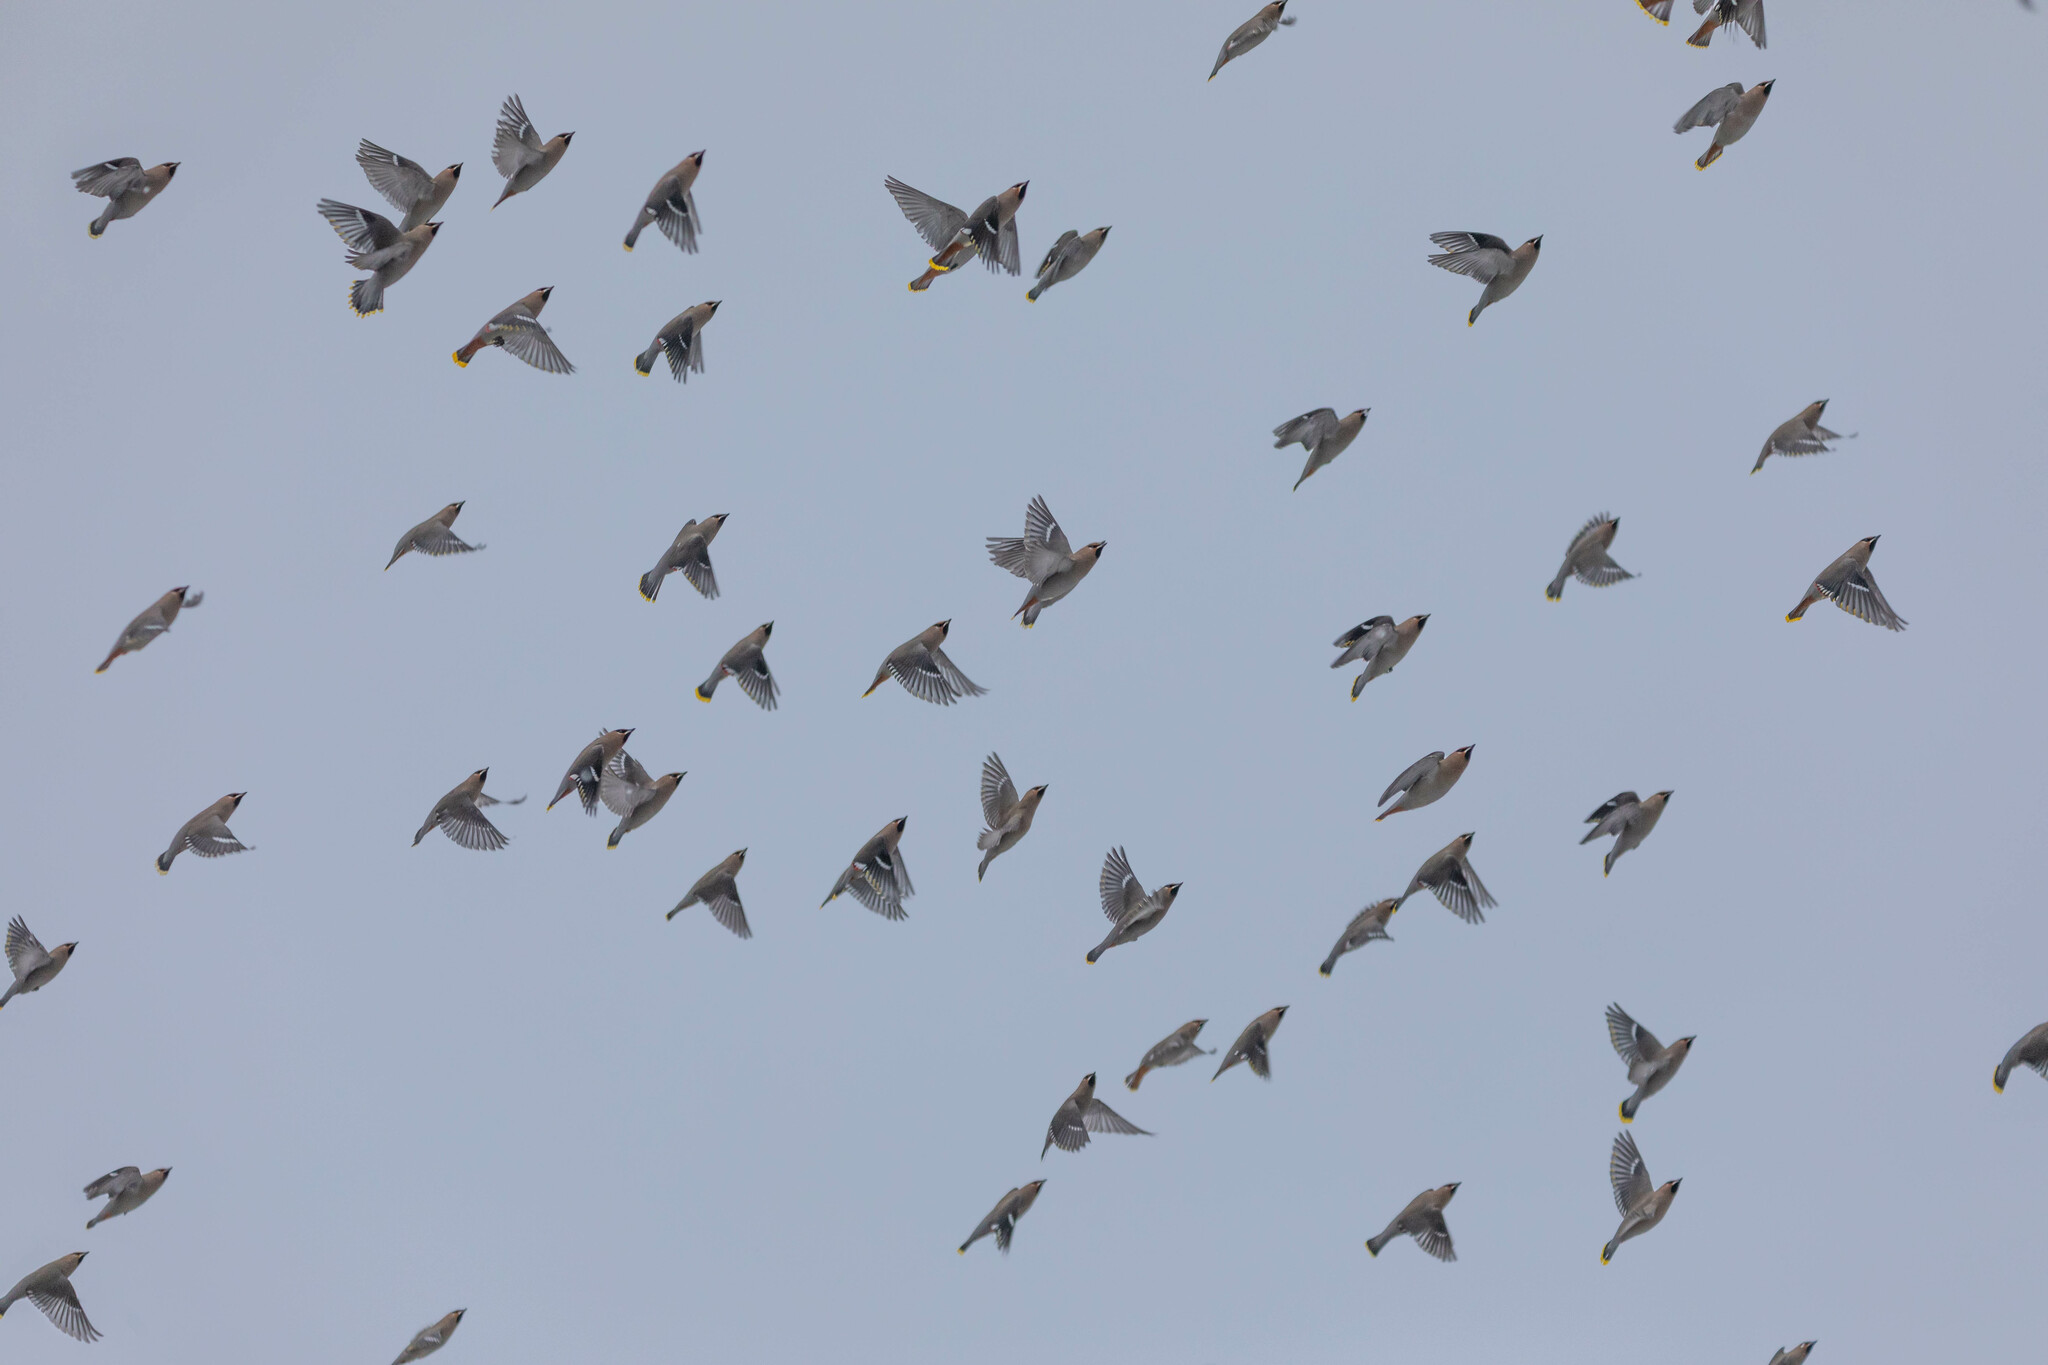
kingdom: Animalia
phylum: Chordata
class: Aves
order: Passeriformes
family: Bombycillidae
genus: Bombycilla
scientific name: Bombycilla garrulus
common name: Bohemian waxwing
